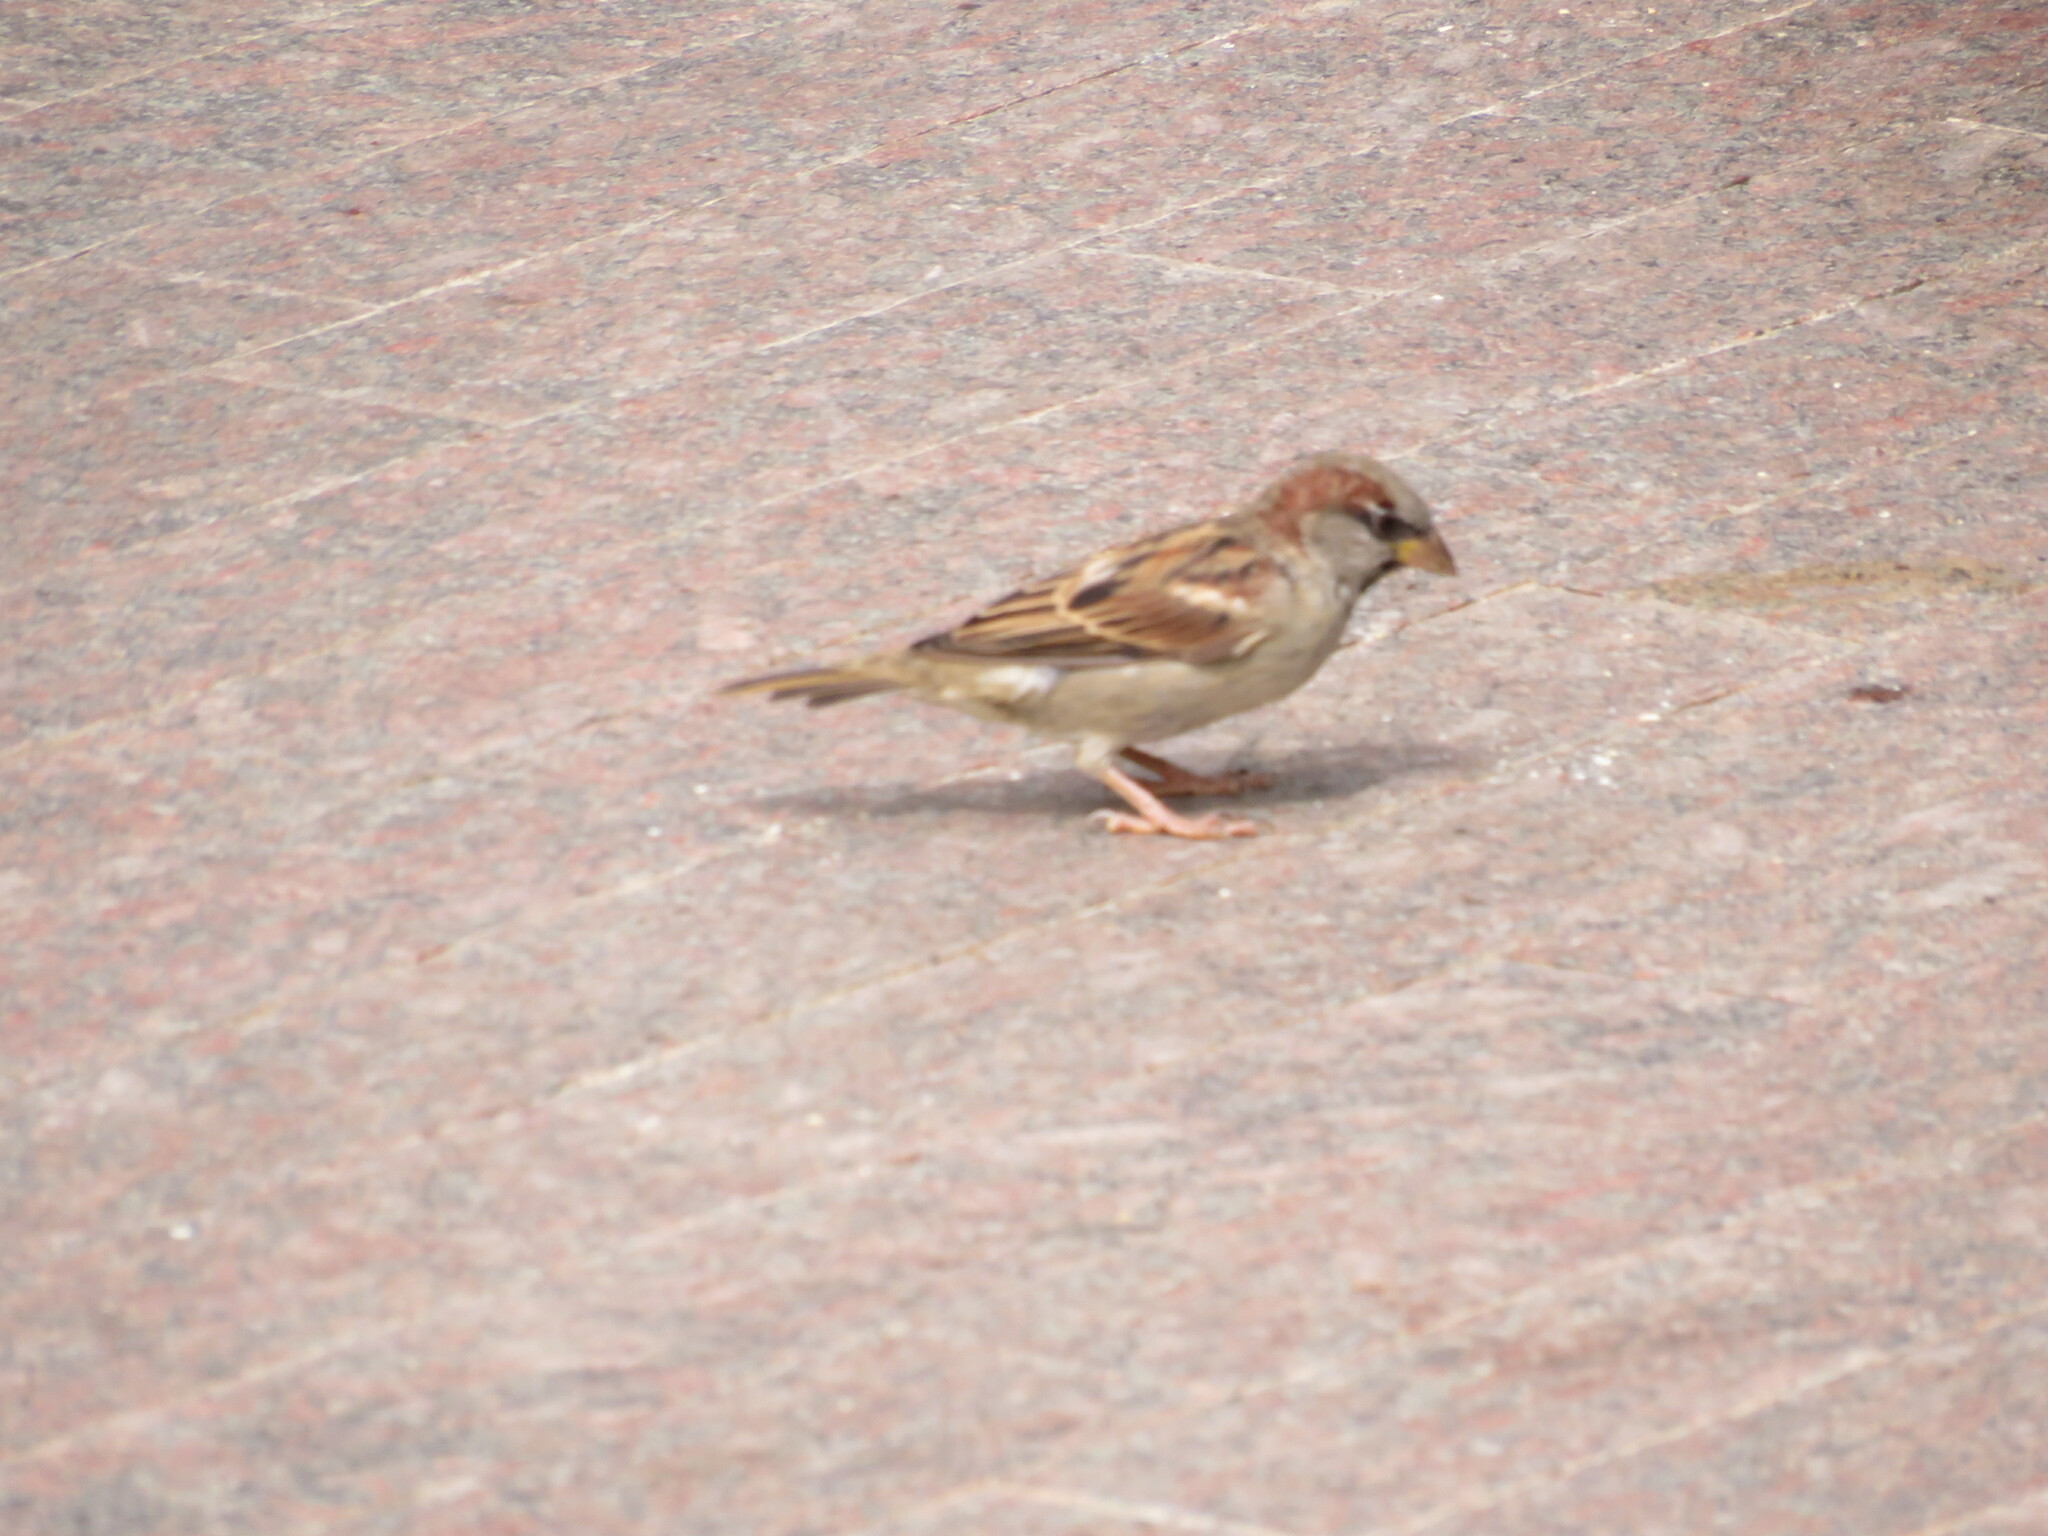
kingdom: Animalia
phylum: Chordata
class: Aves
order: Passeriformes
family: Passeridae
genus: Passer
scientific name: Passer domesticus
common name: House sparrow
